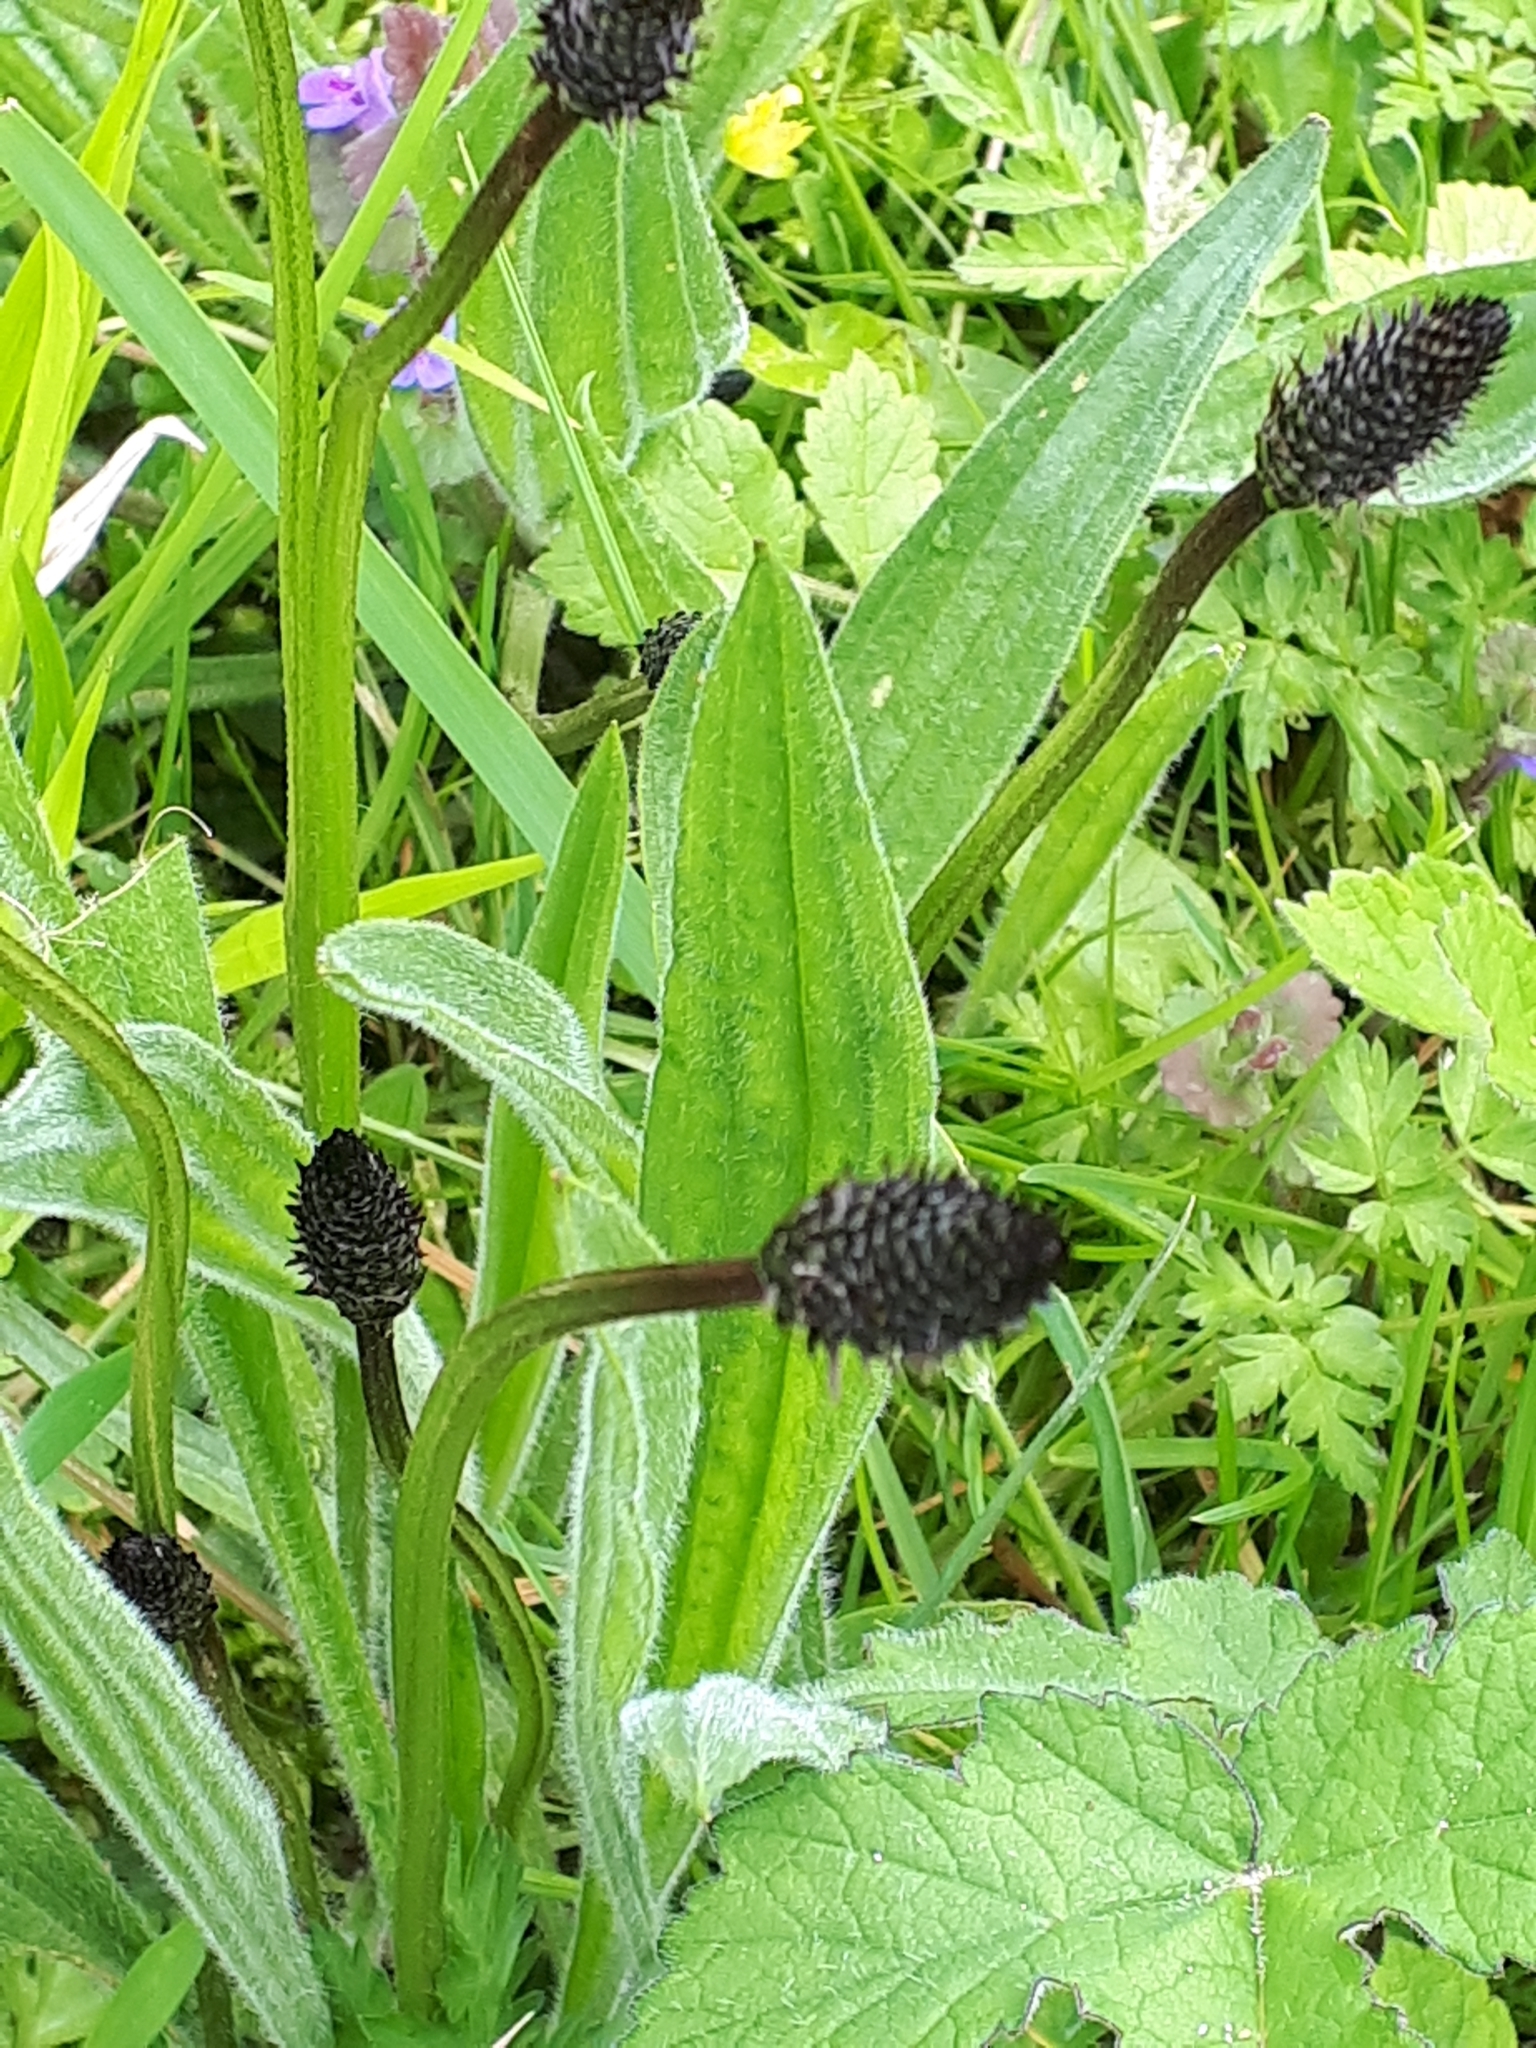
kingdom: Plantae
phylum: Tracheophyta
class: Magnoliopsida
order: Lamiales
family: Plantaginaceae
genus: Plantago
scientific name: Plantago lanceolata
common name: Ribwort plantain
